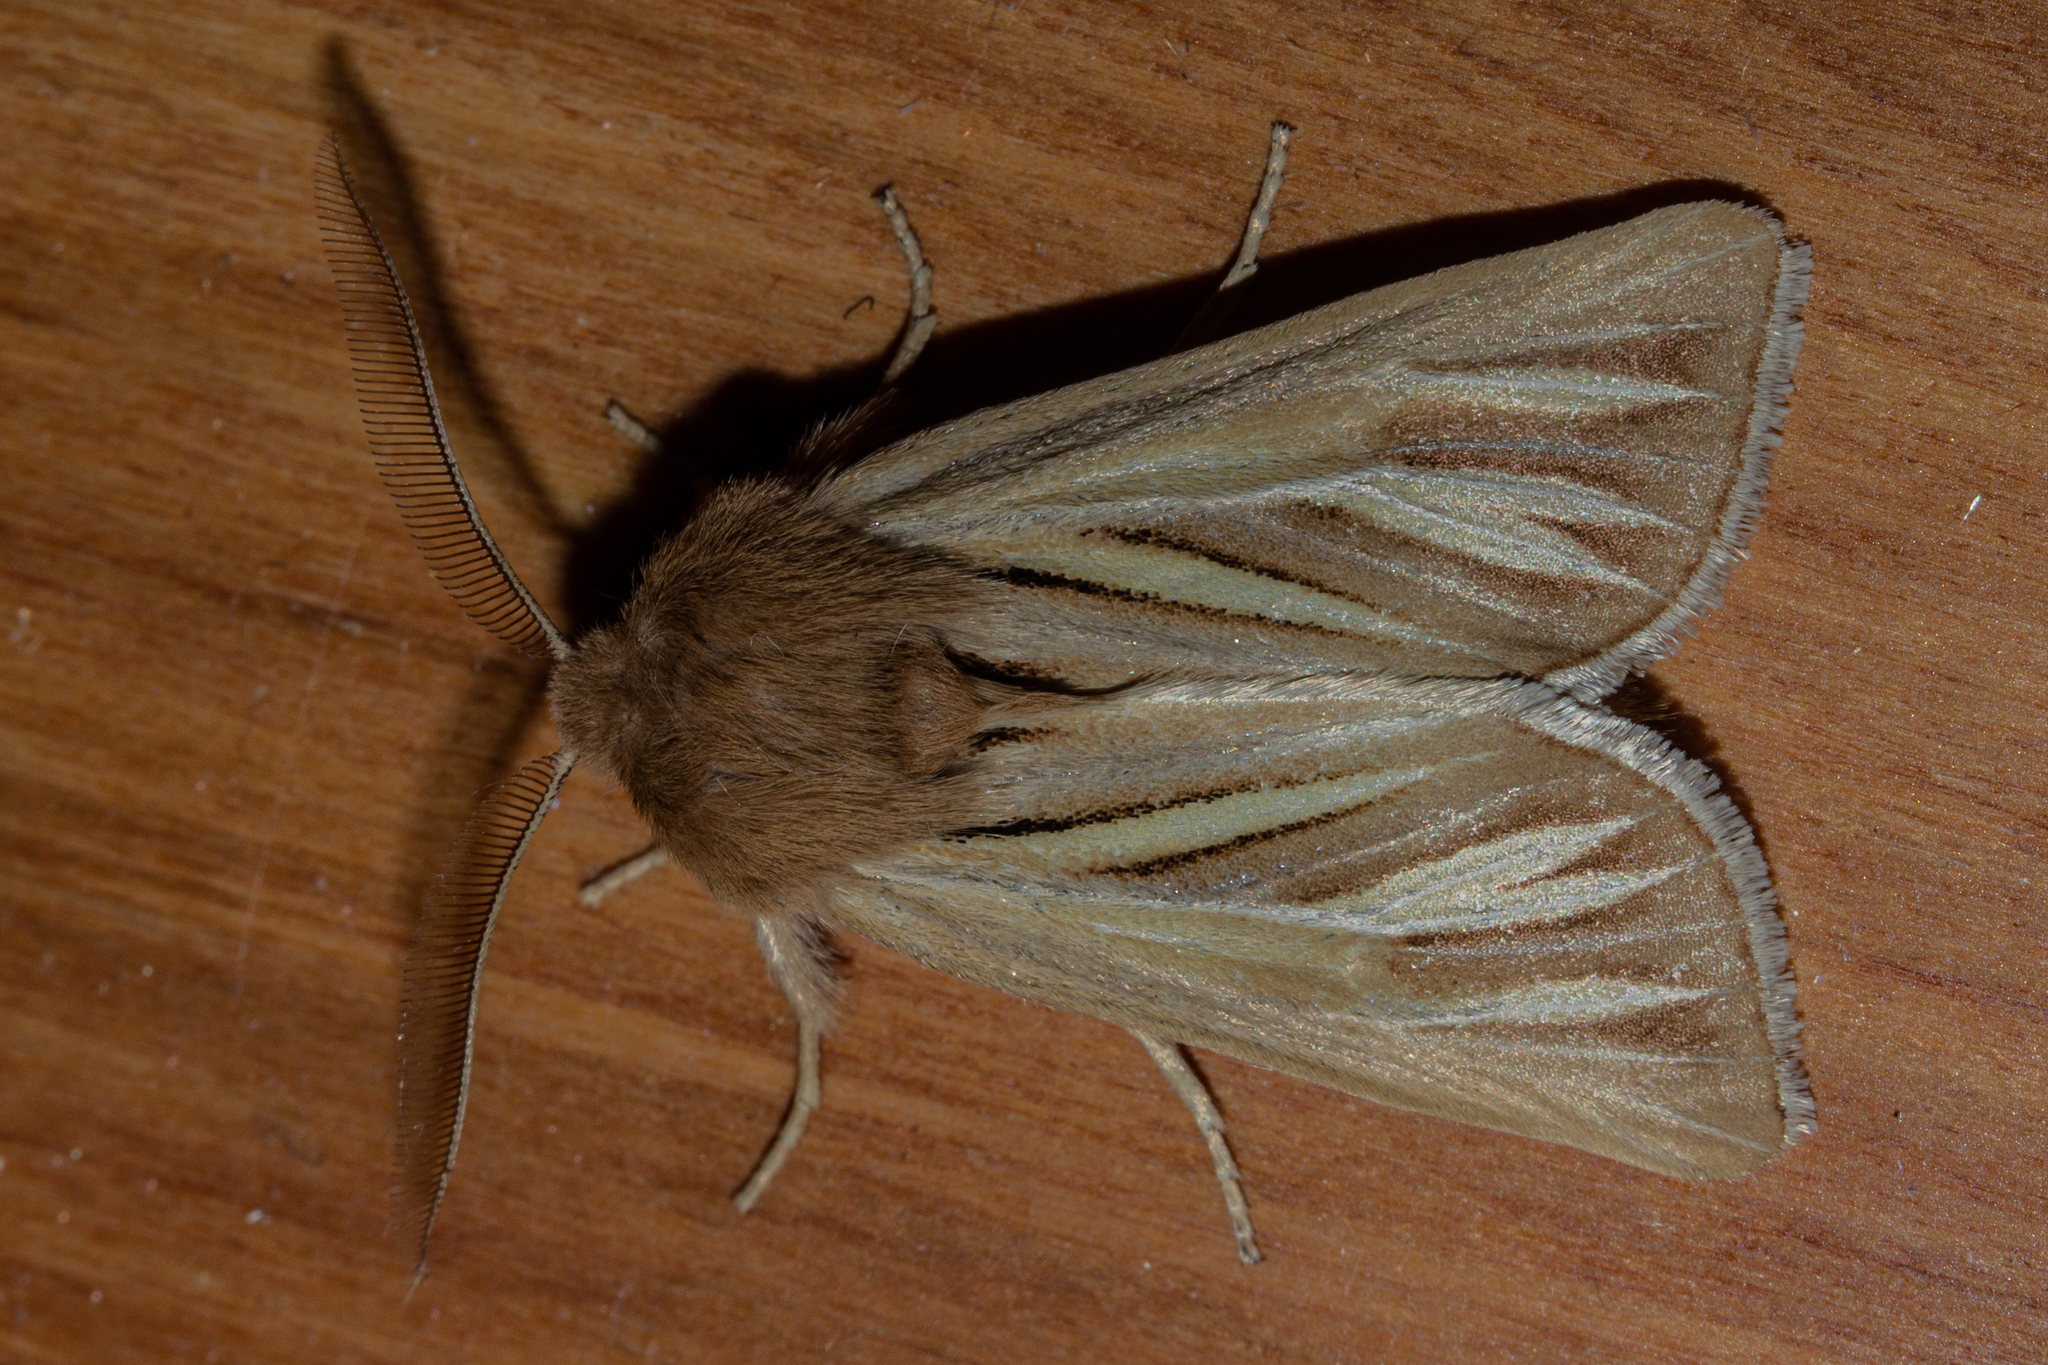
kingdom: Animalia
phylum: Arthropoda
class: Insecta
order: Lepidoptera
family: Noctuidae
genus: Ichneutica
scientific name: Ichneutica caraunias
